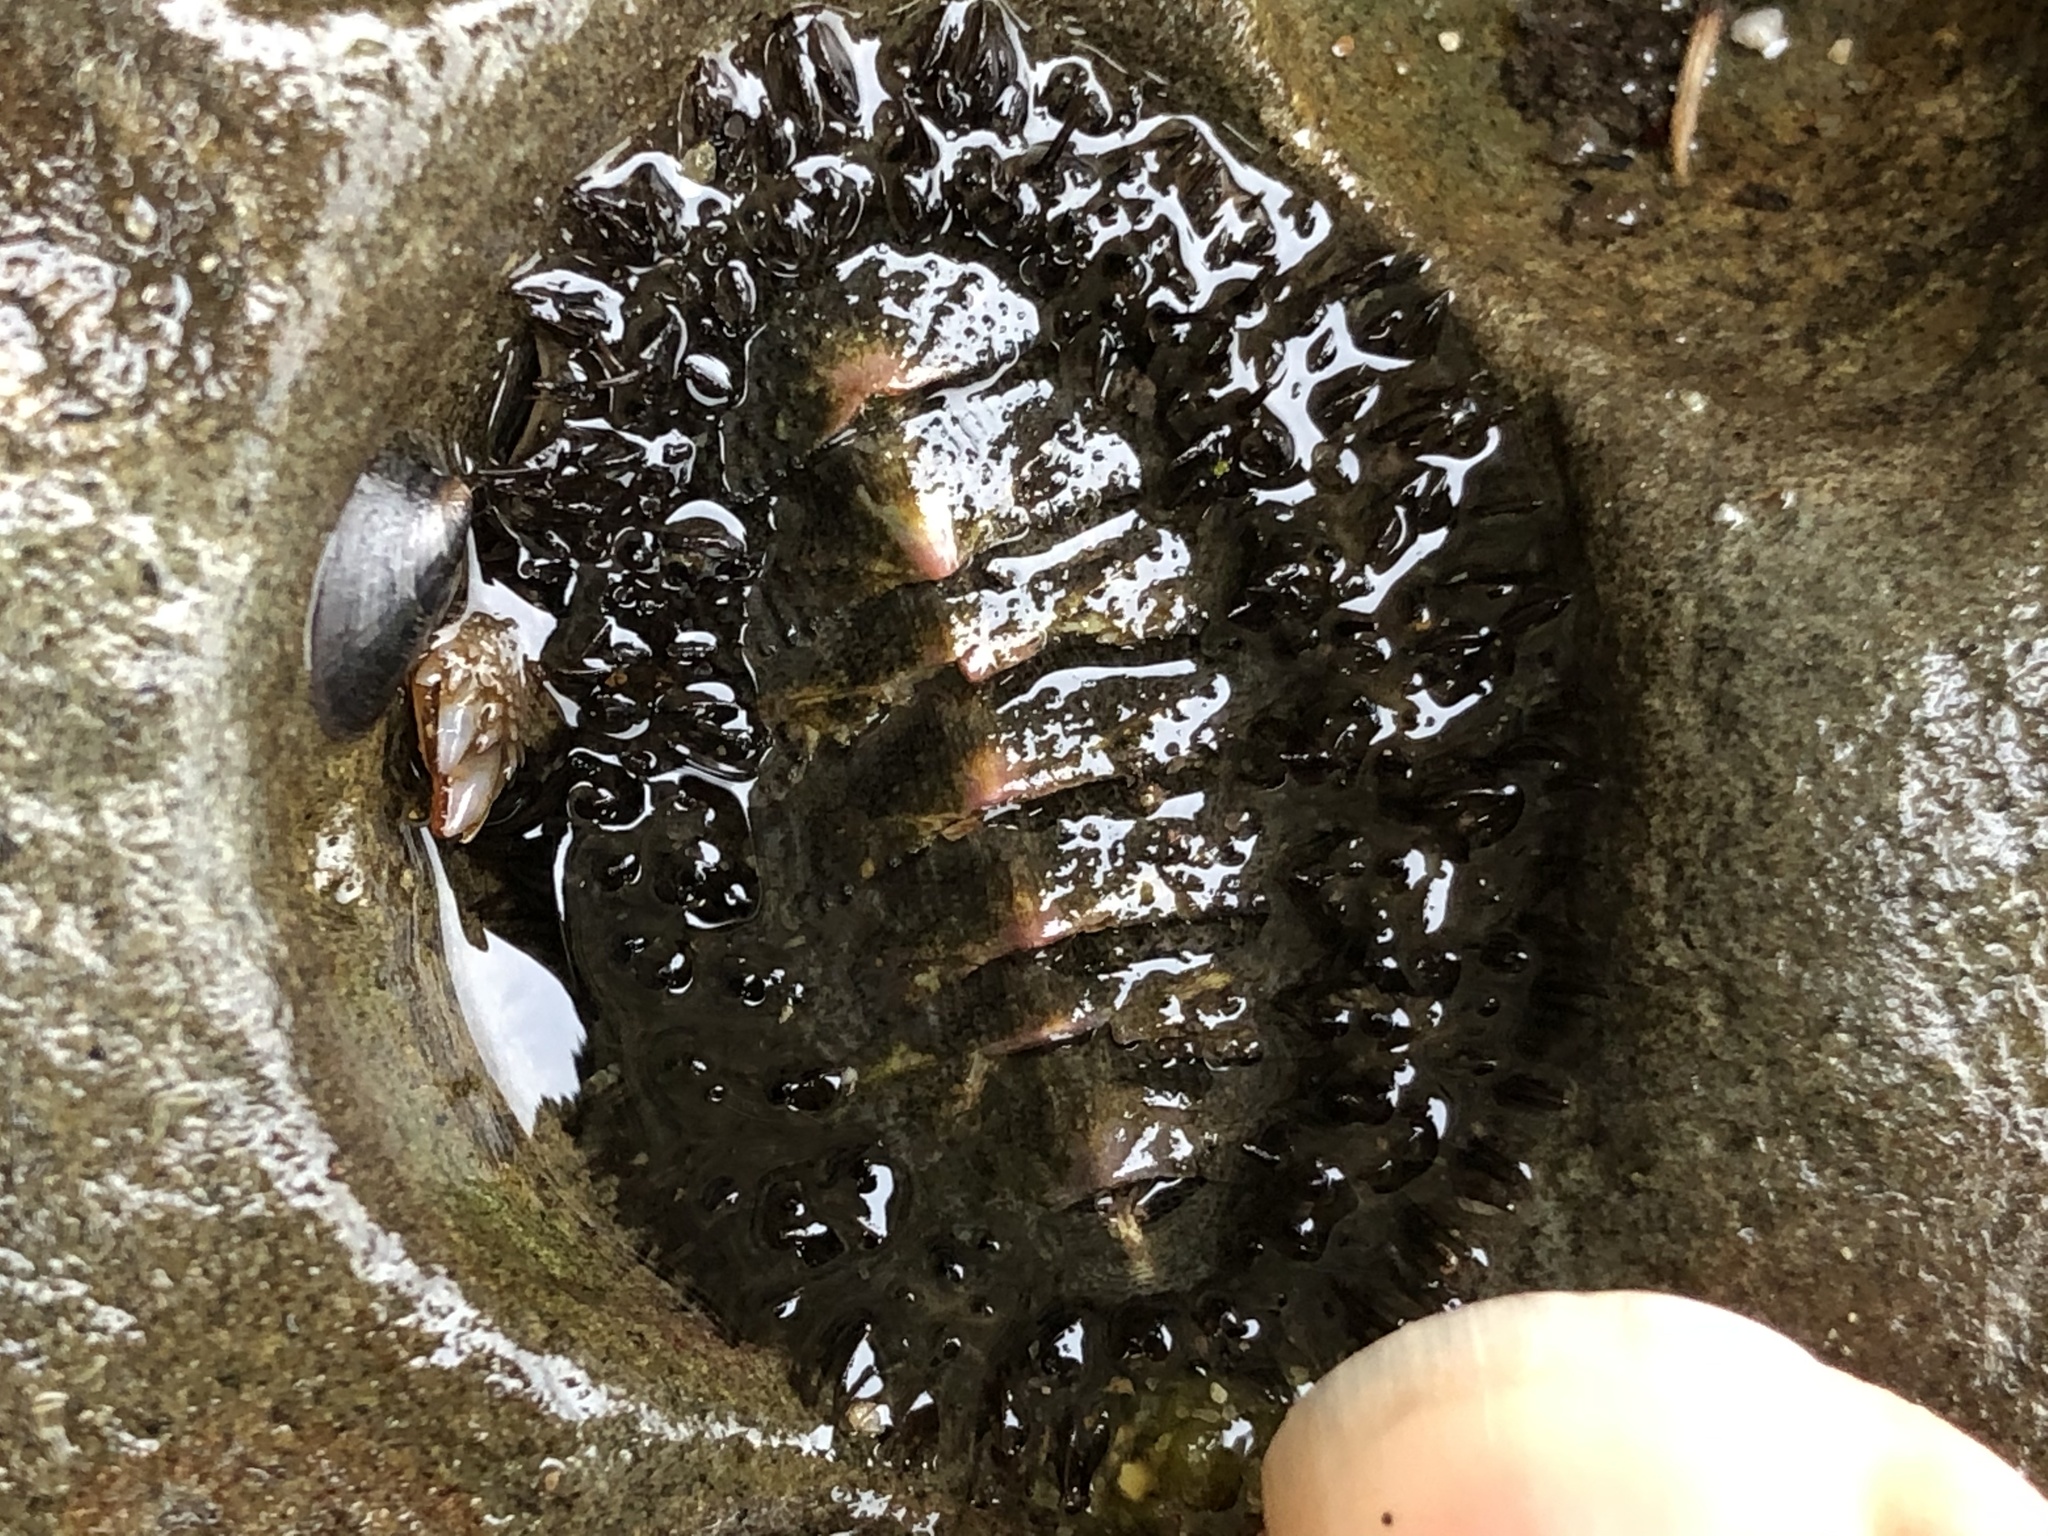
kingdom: Animalia
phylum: Mollusca
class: Polyplacophora
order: Chitonida
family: Mopaliidae
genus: Mopalia
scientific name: Mopalia muscosa
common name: Mossy chiton
